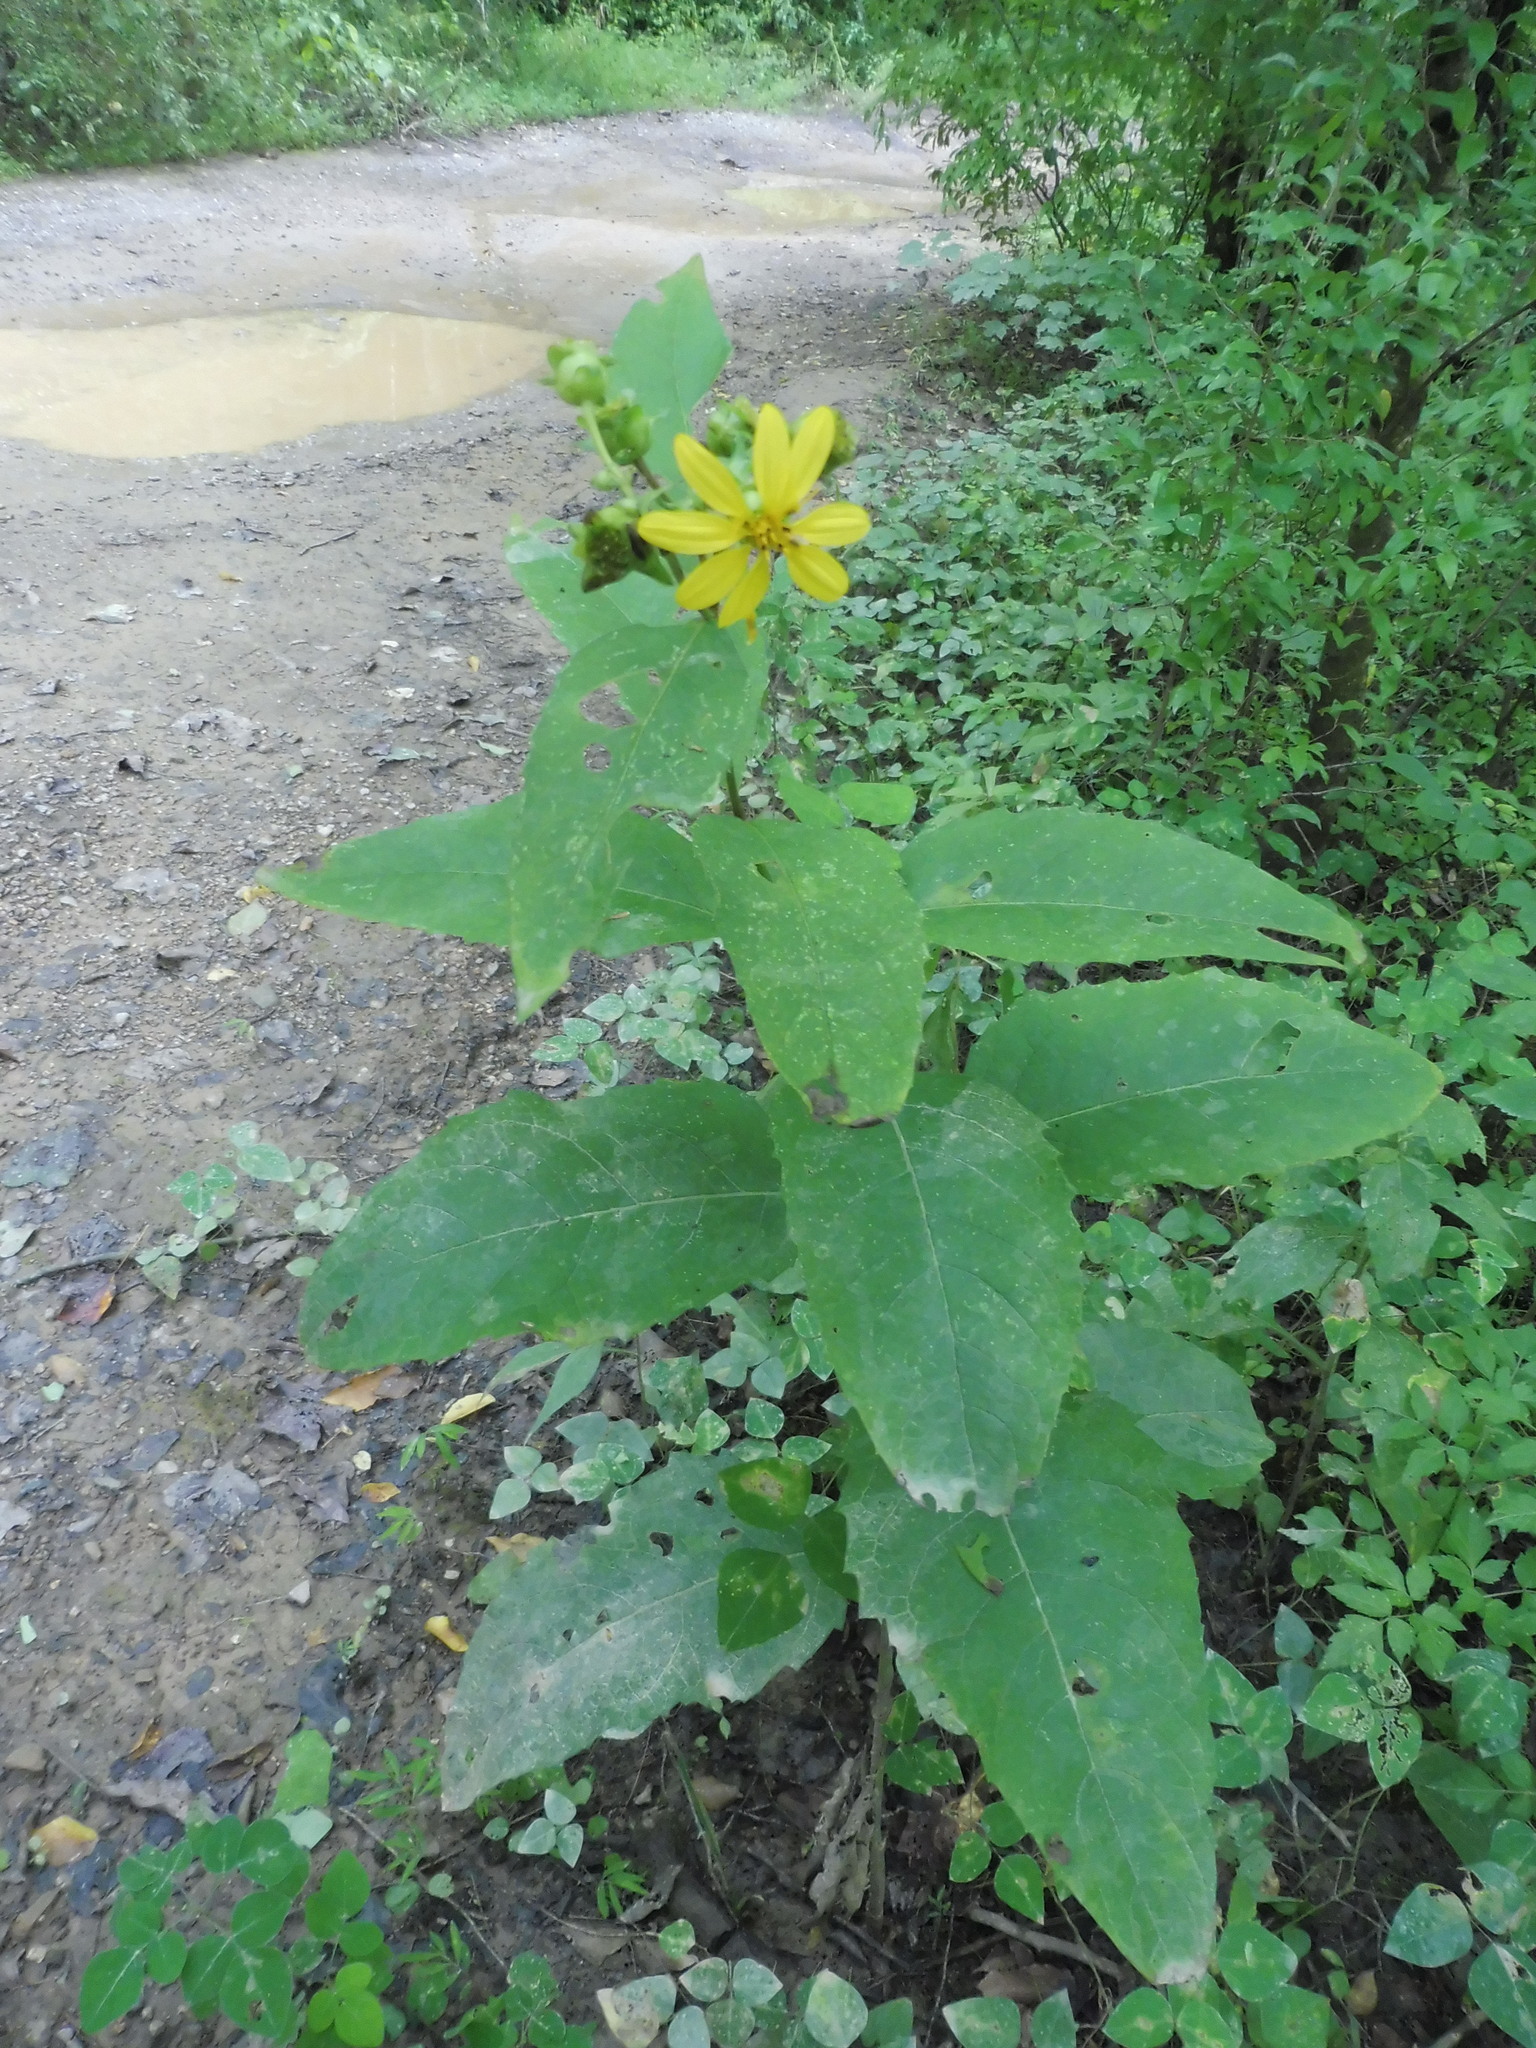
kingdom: Plantae
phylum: Tracheophyta
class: Magnoliopsida
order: Asterales
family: Asteraceae
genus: Silphium
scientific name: Silphium asteriscus
